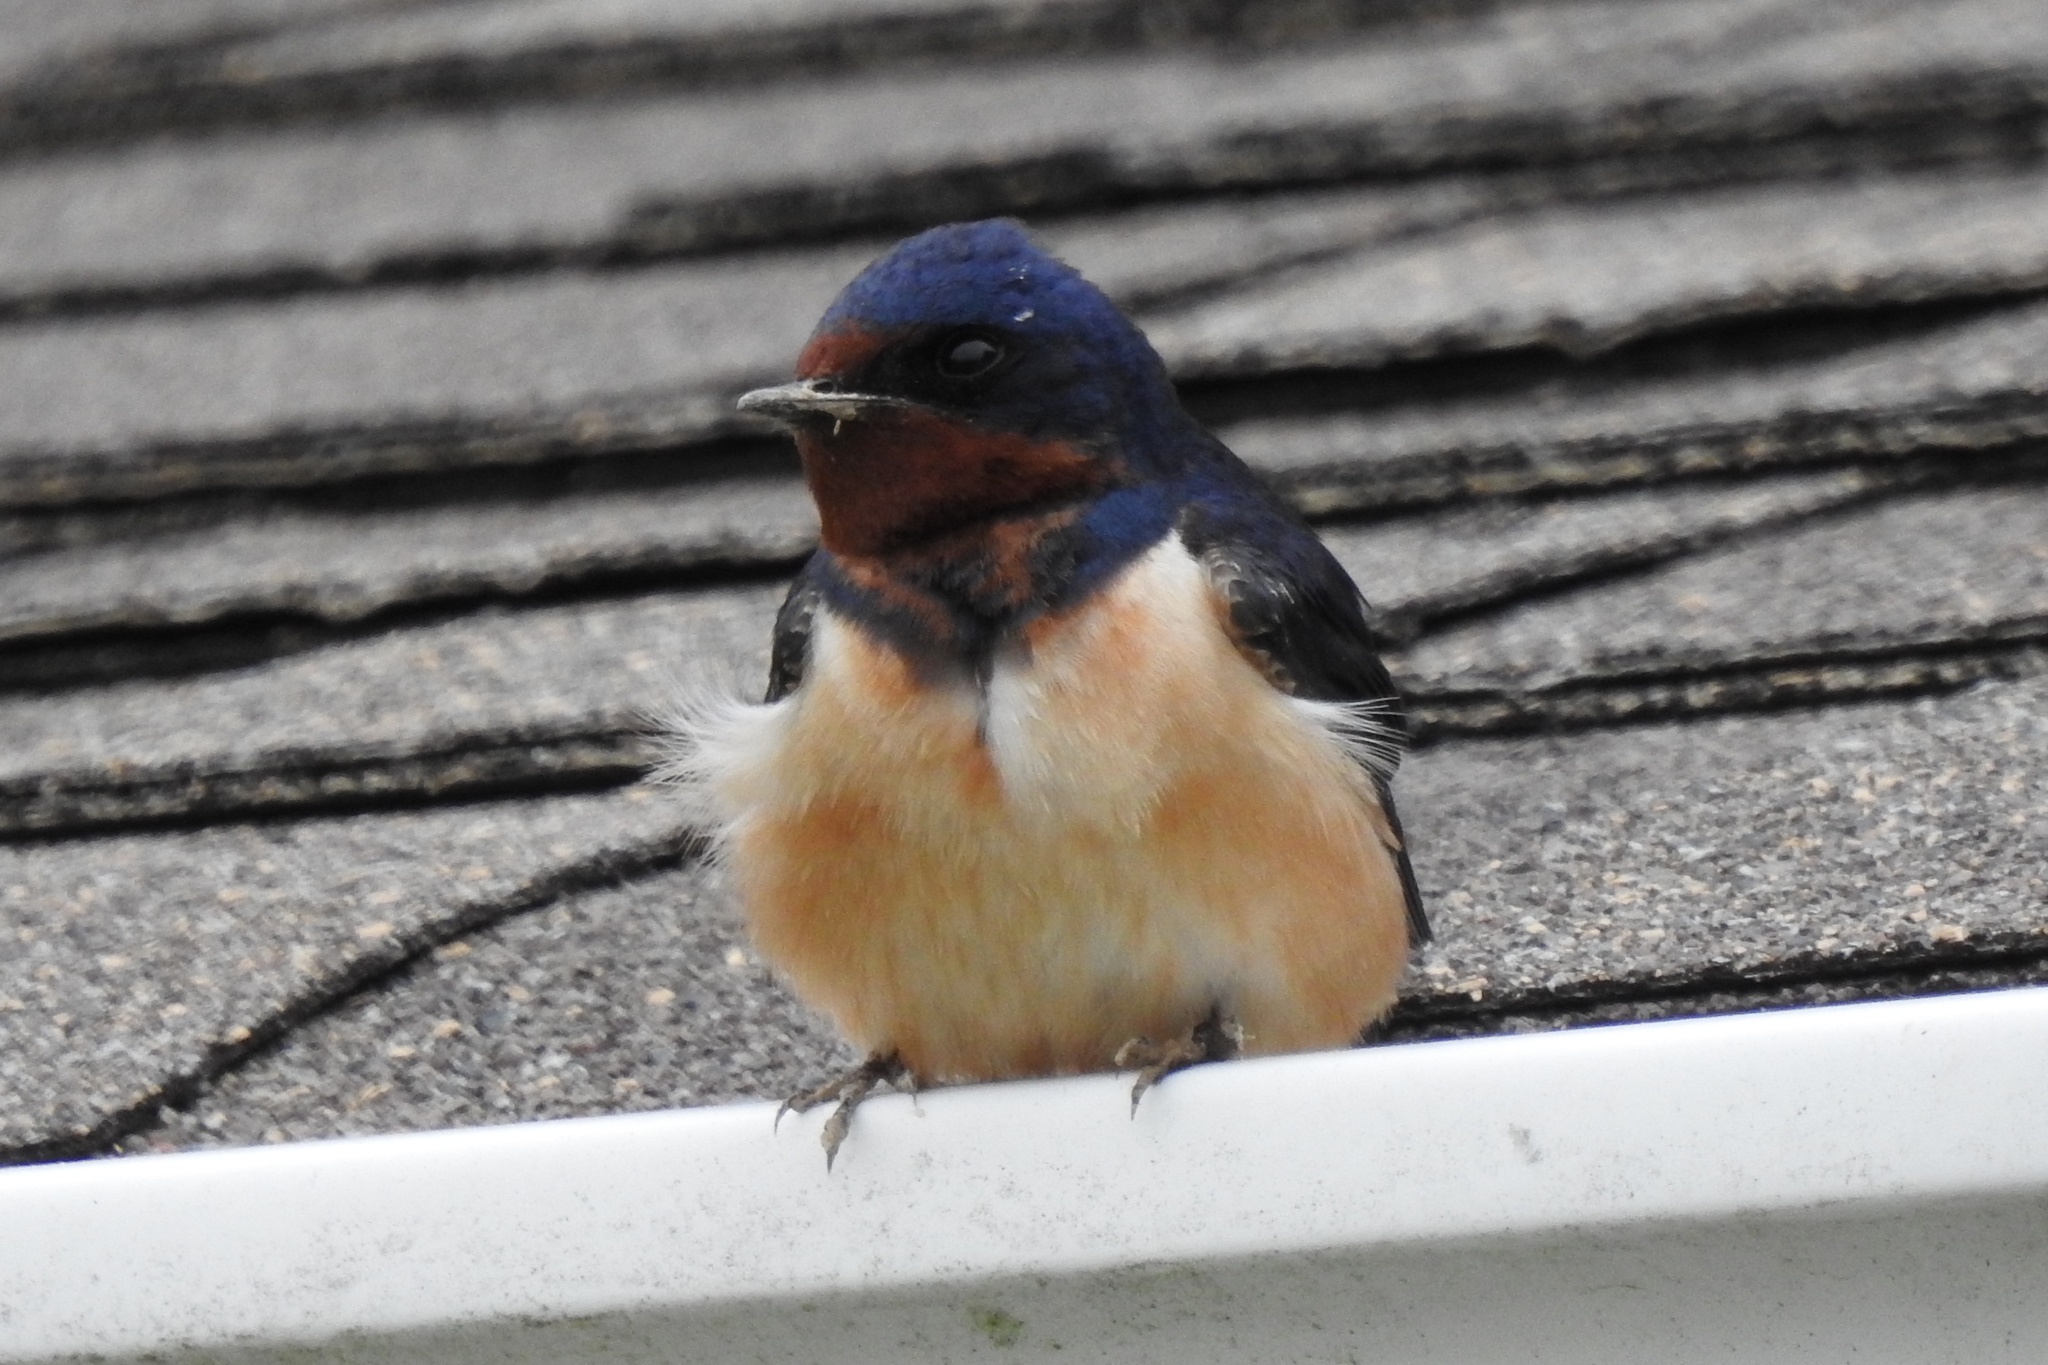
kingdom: Animalia
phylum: Chordata
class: Aves
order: Passeriformes
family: Hirundinidae
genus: Hirundo
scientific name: Hirundo rustica
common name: Barn swallow
